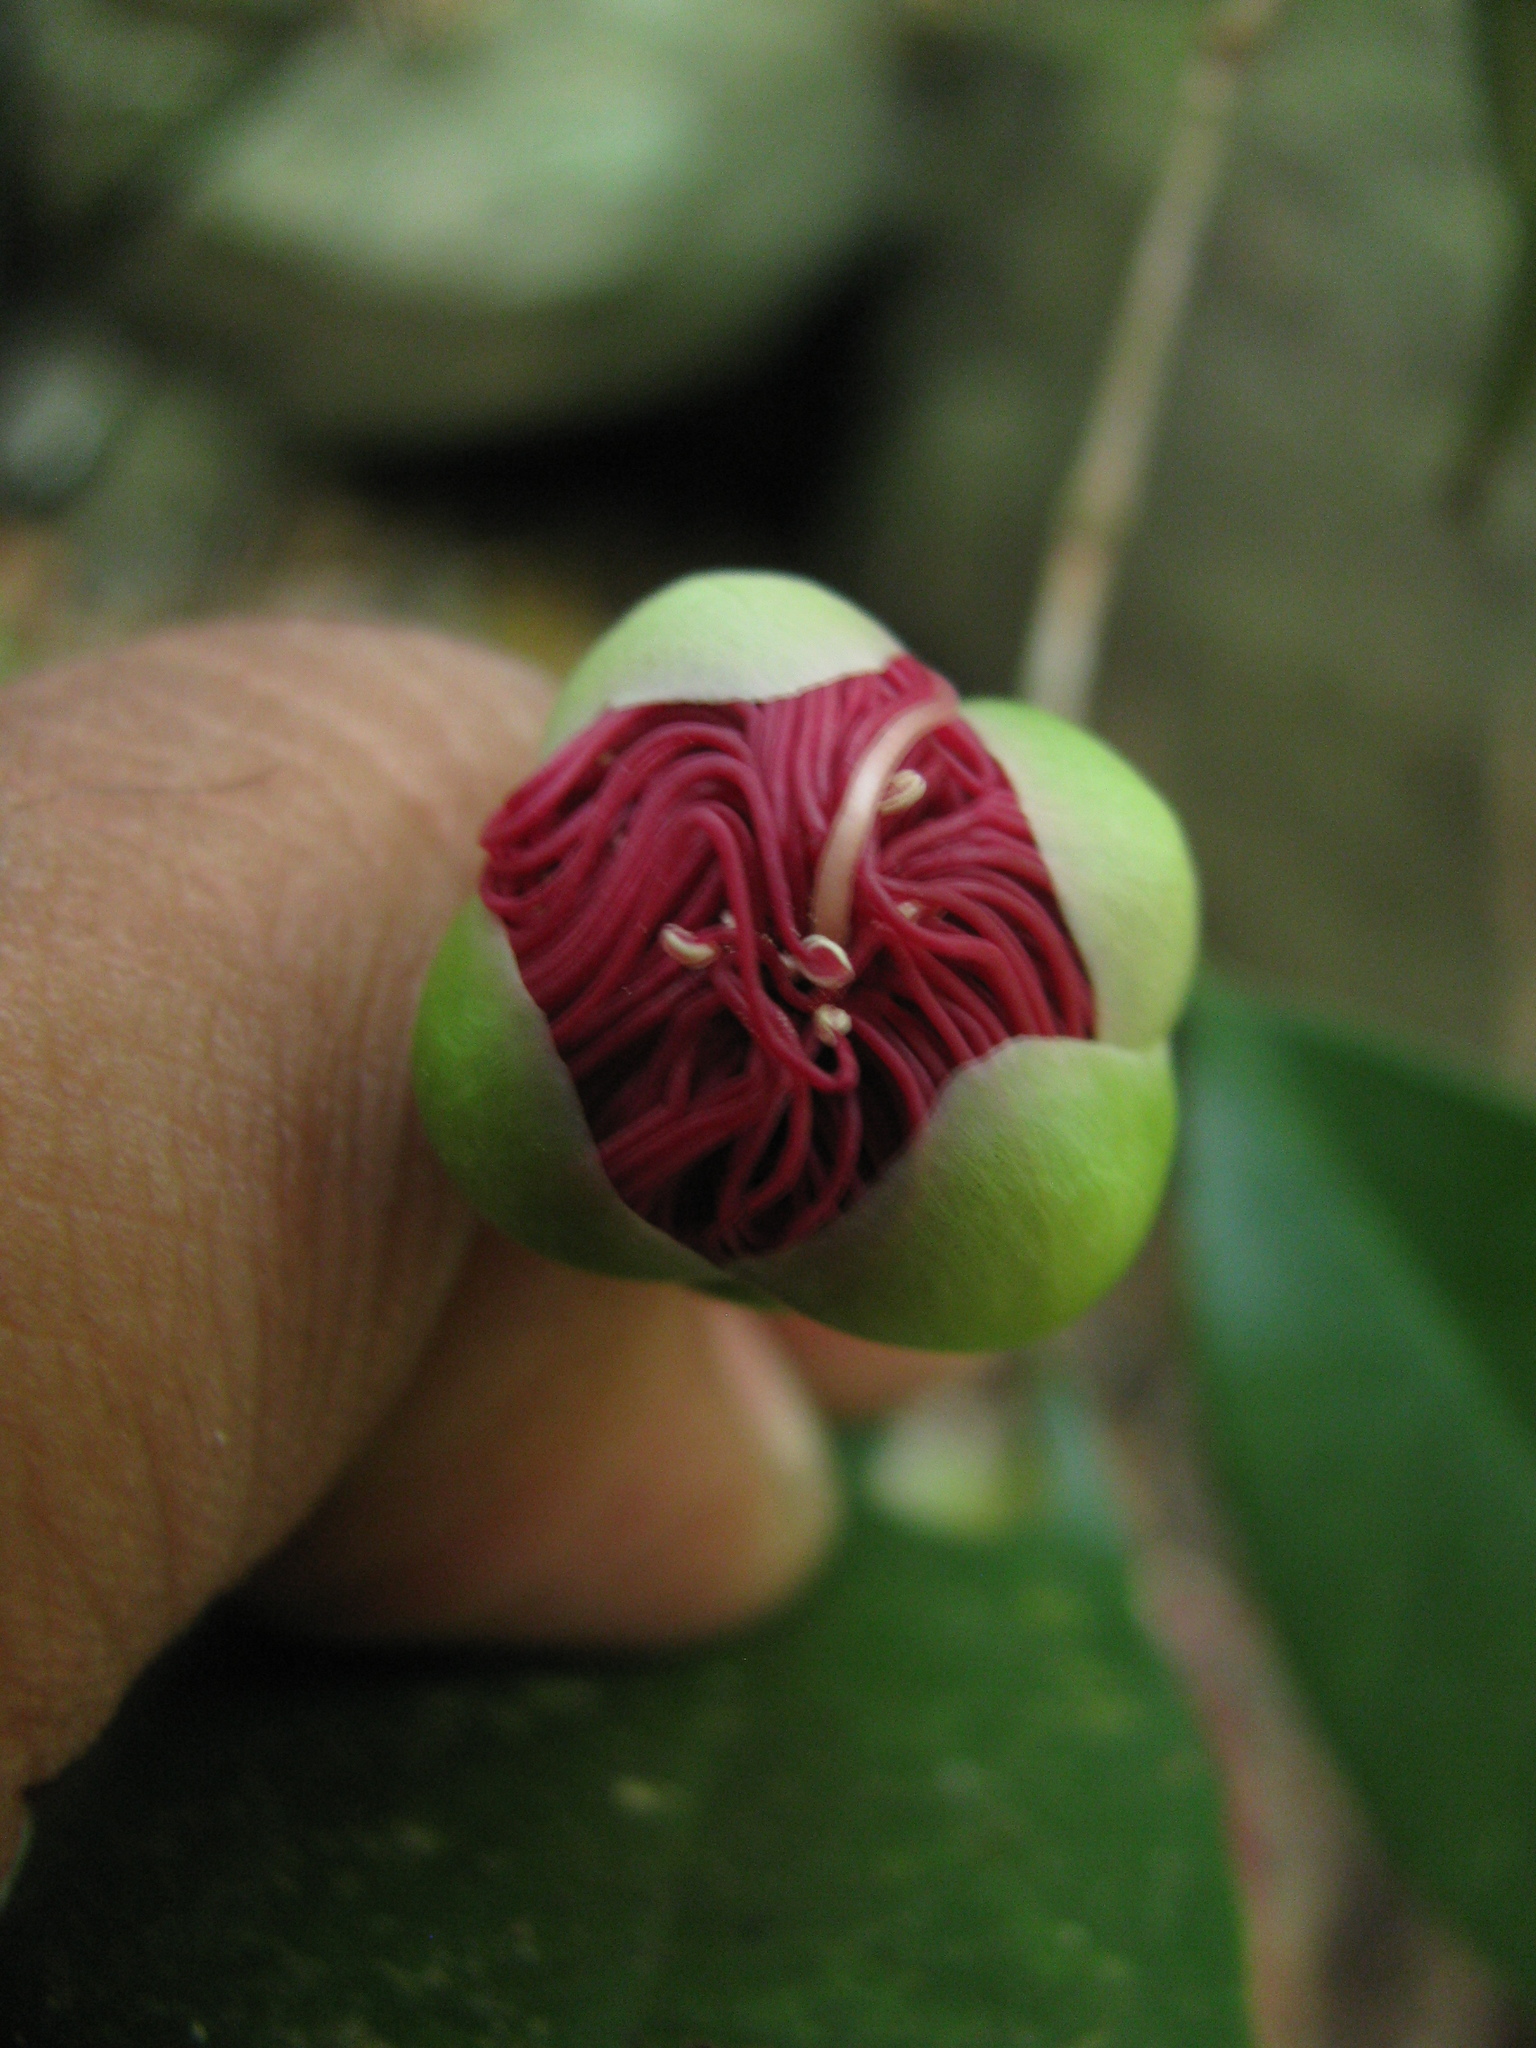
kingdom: Plantae
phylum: Tracheophyta
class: Magnoliopsida
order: Myrtales
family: Myrtaceae
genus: Syzygium
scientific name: Syzygium laetum
